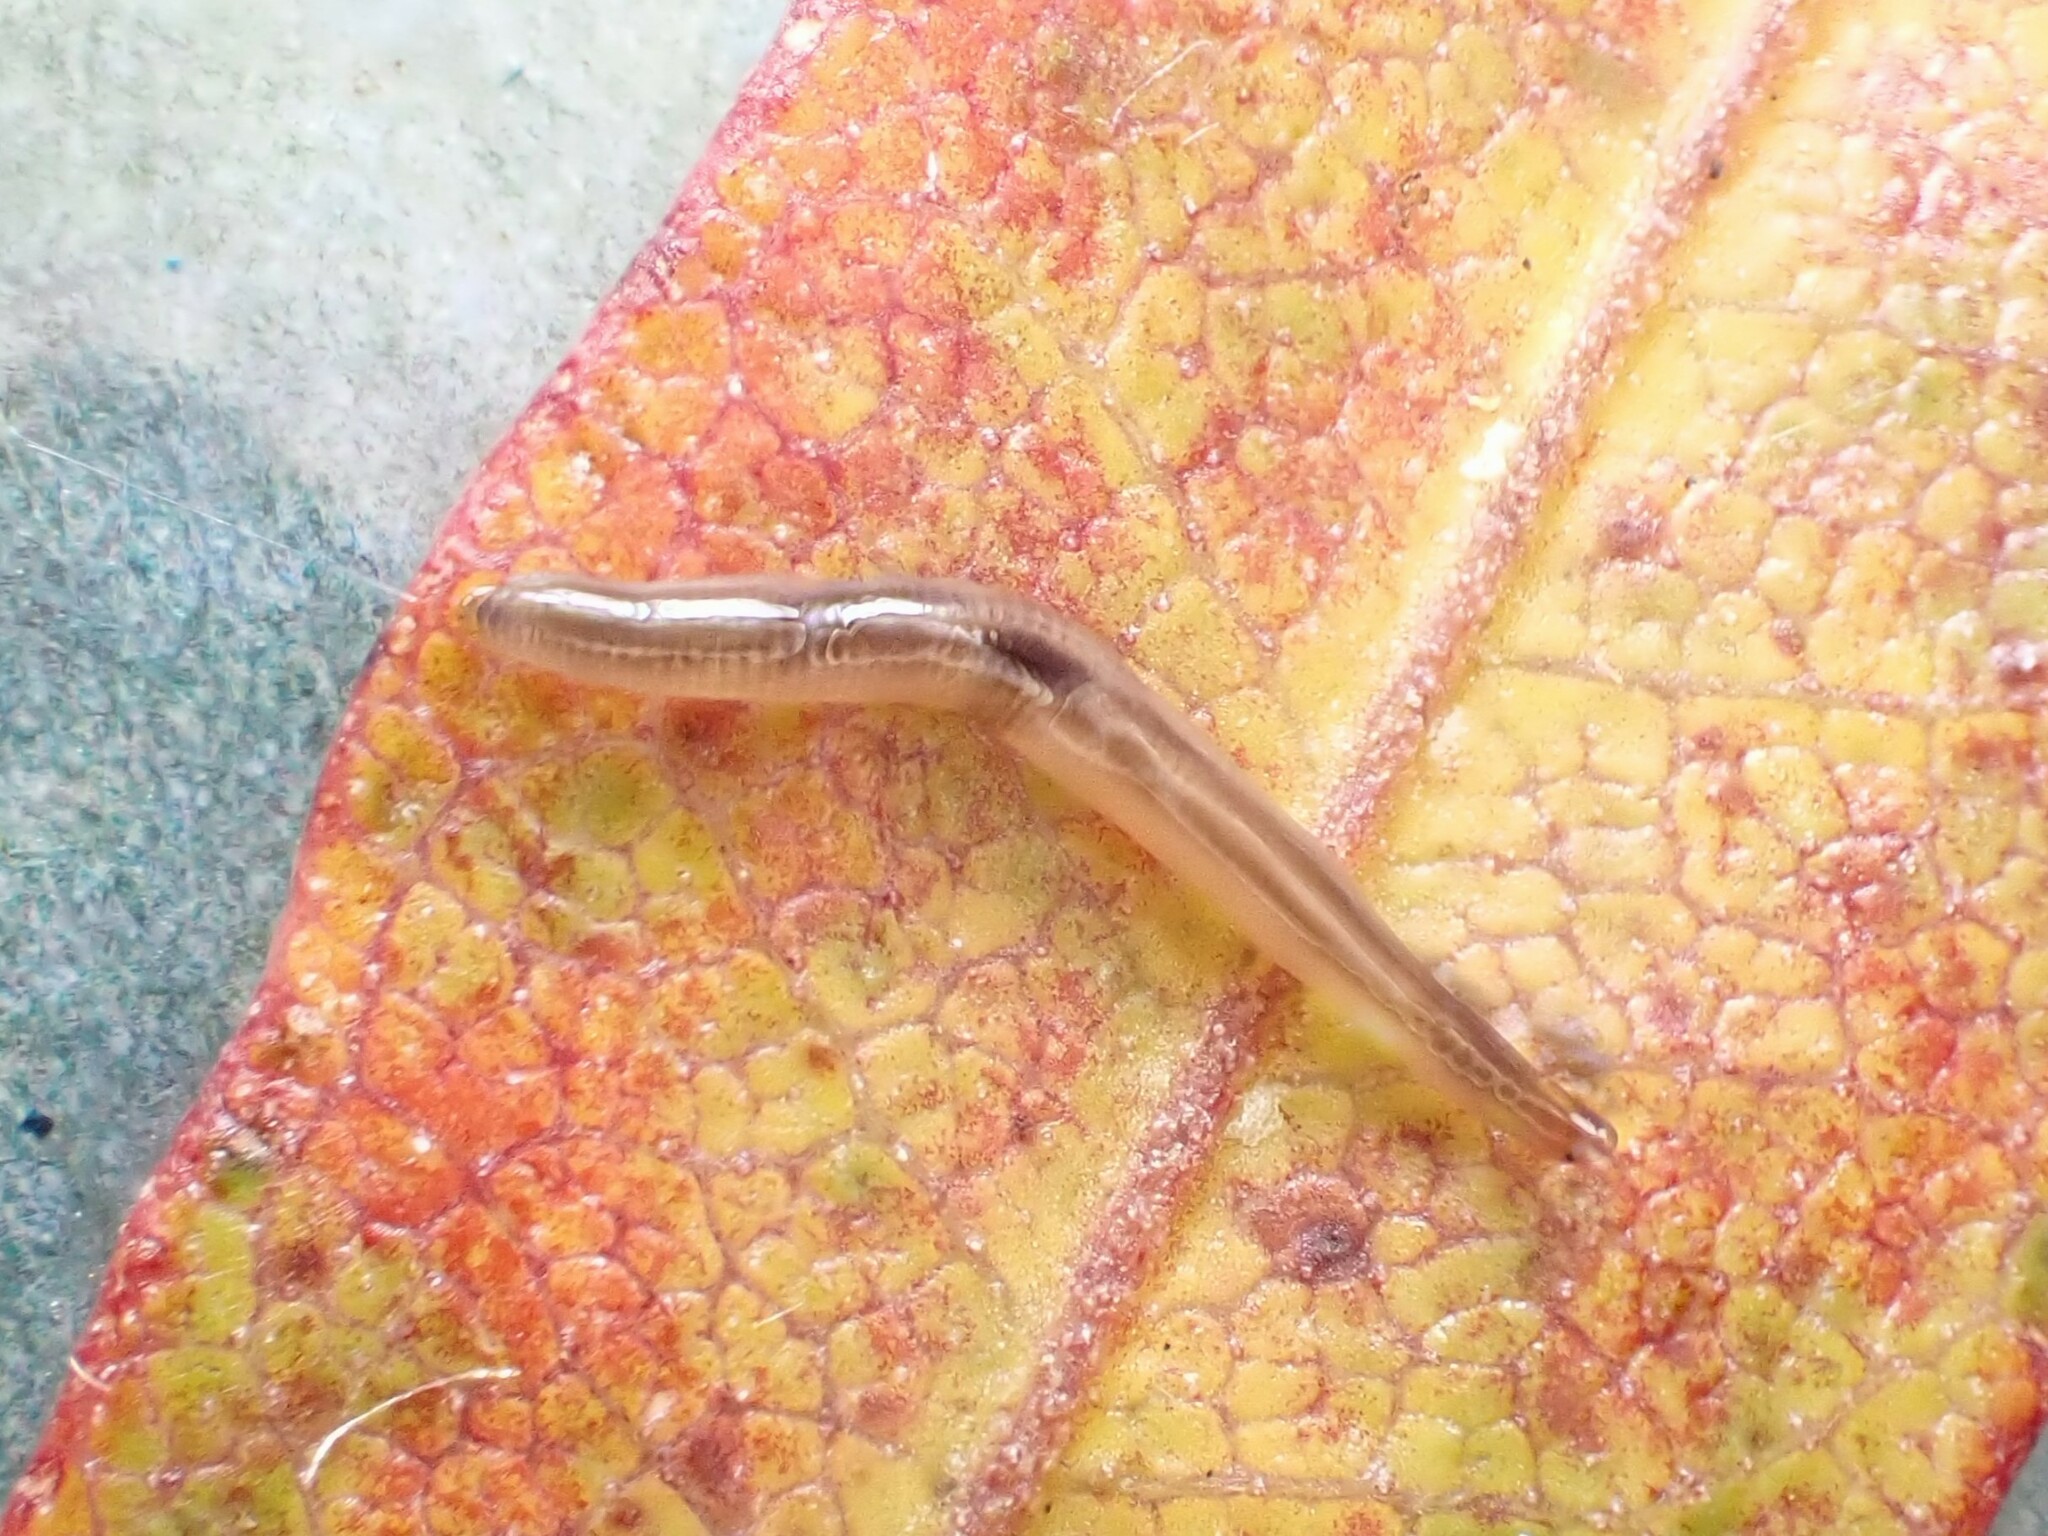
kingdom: Animalia
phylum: Platyhelminthes
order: Tricladida
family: Geoplanidae
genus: Rhynchodemus
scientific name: Rhynchodemus sylvaticus
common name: A flatworm
